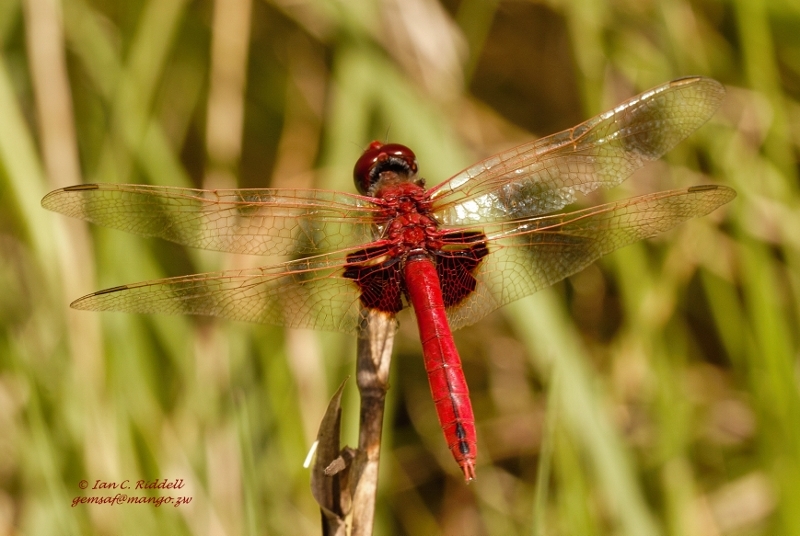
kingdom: Animalia
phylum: Arthropoda
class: Insecta
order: Odonata
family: Libellulidae
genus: Urothemis
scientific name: Urothemis assignata
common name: Red basker
